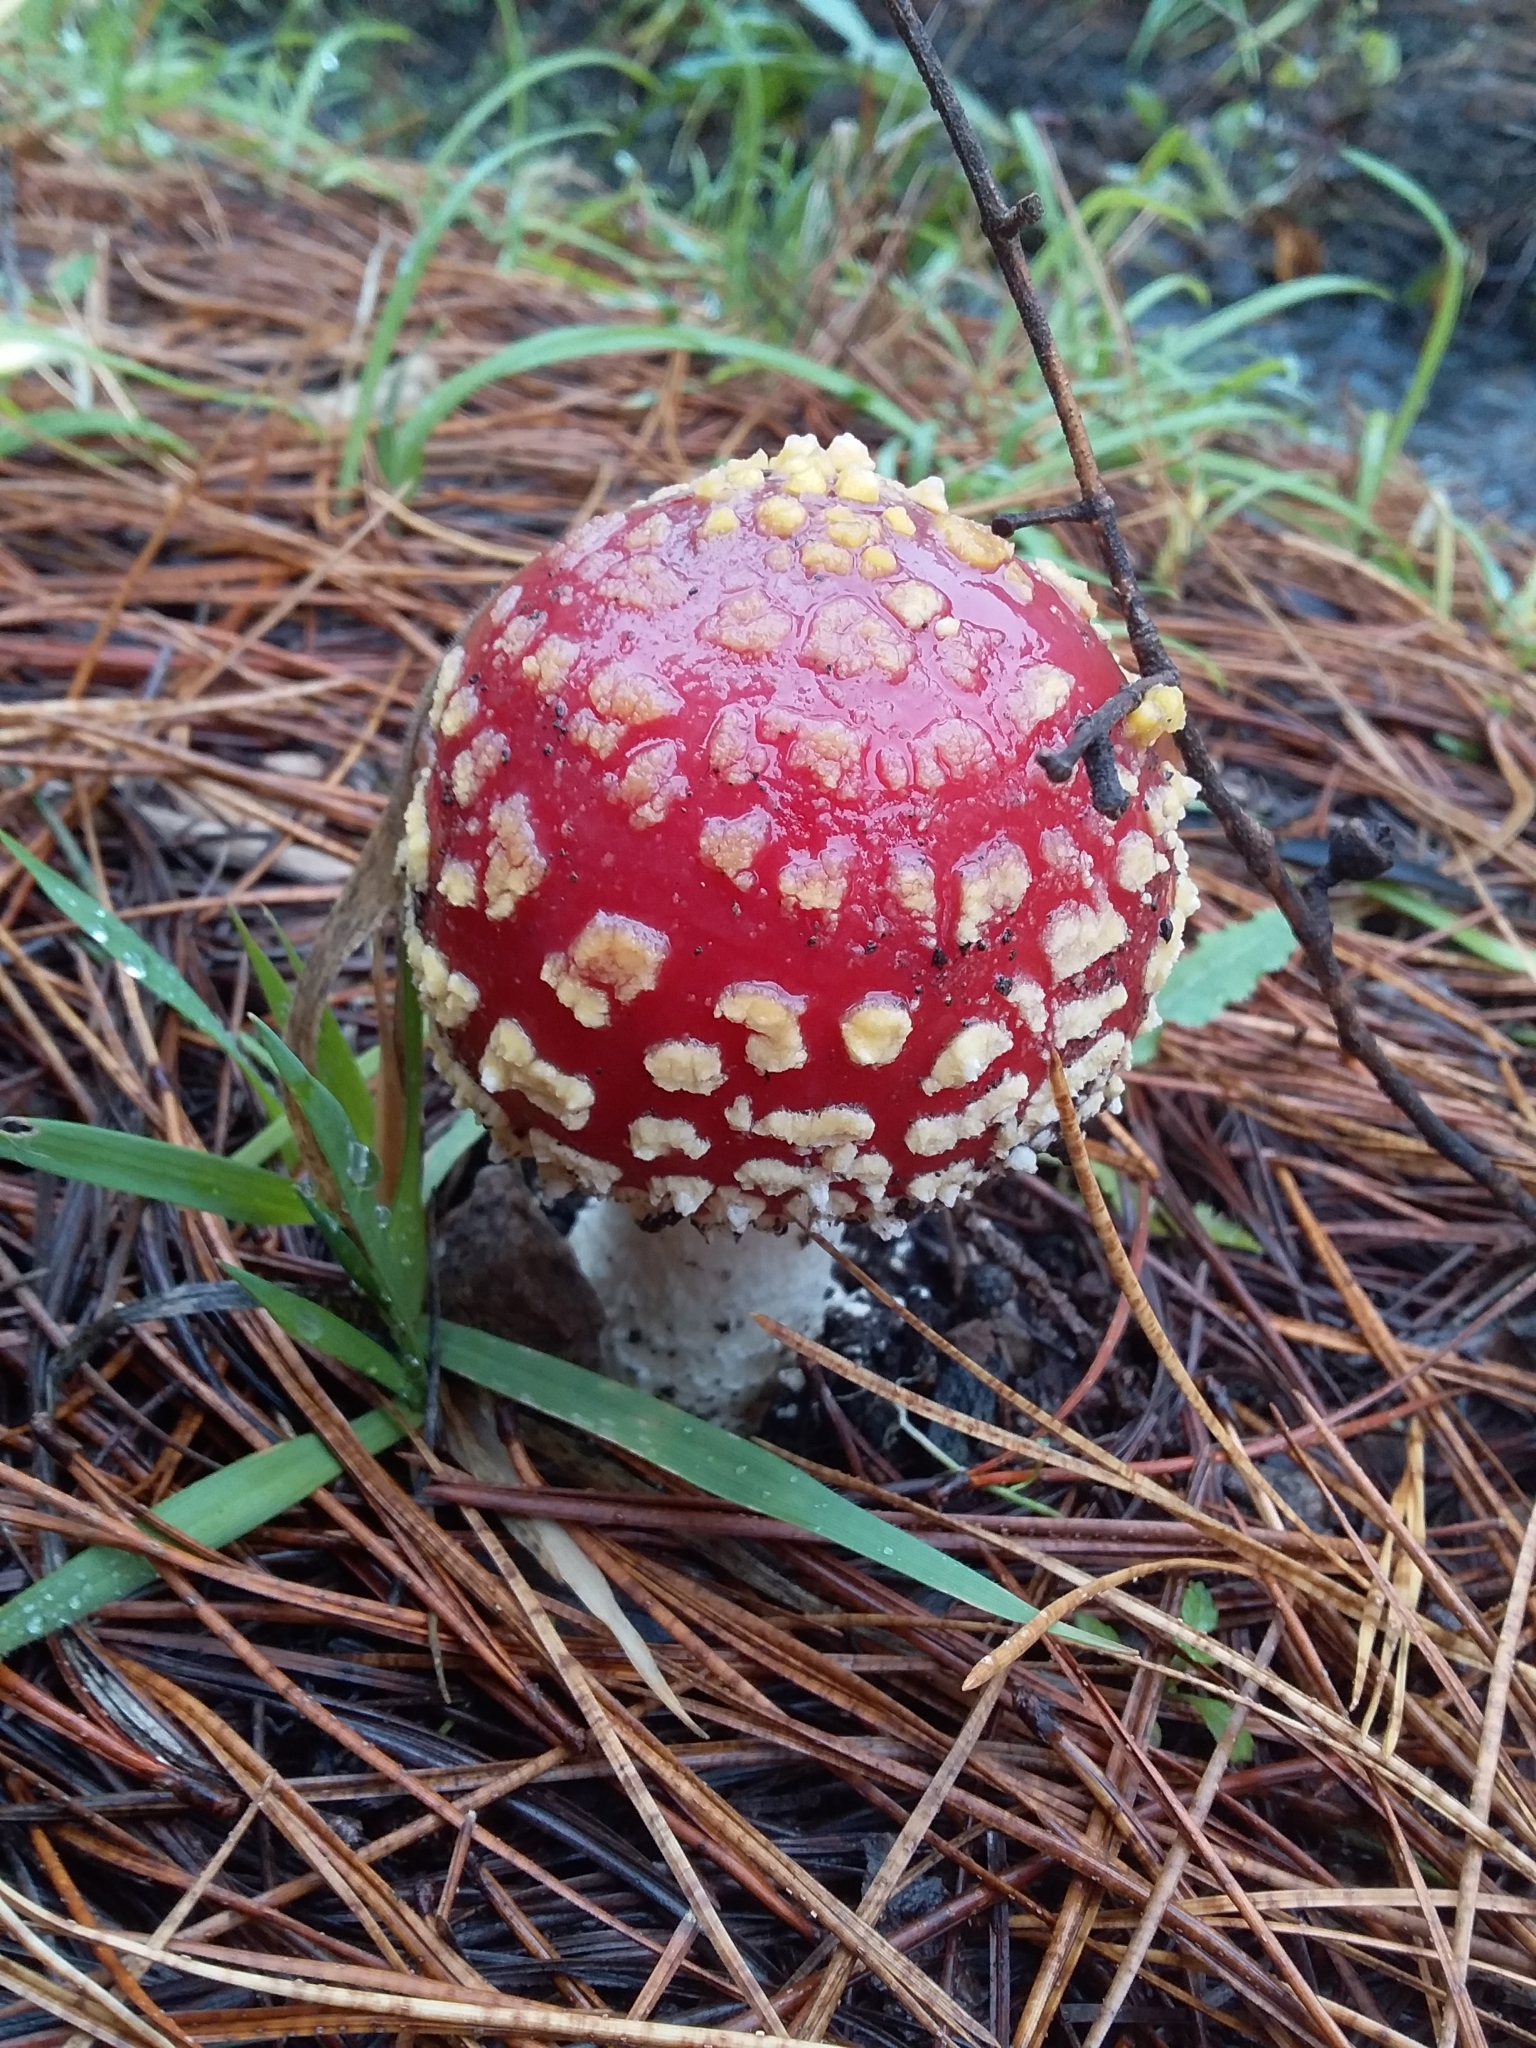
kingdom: Fungi
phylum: Basidiomycota
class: Agaricomycetes
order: Agaricales
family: Amanitaceae
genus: Amanita
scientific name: Amanita muscaria
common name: Fly agaric
